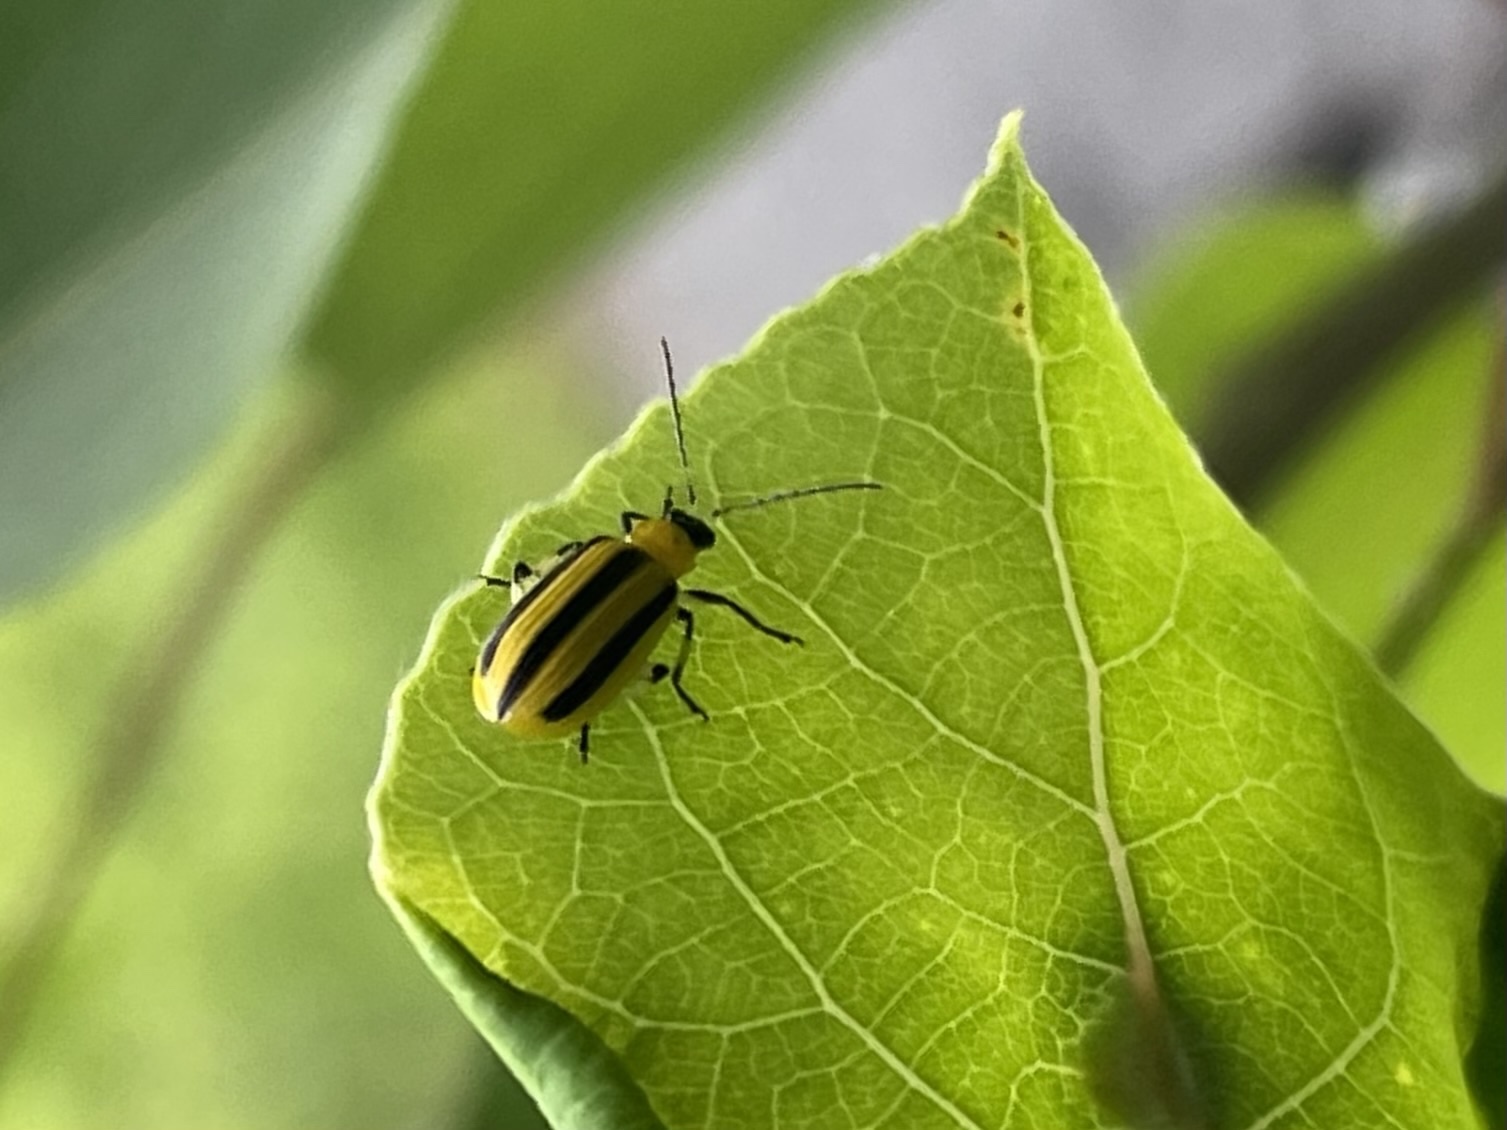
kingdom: Animalia
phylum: Arthropoda
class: Insecta
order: Coleoptera
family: Chrysomelidae
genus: Acalymma
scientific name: Acalymma vittatum
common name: Striped cucumber beetle
